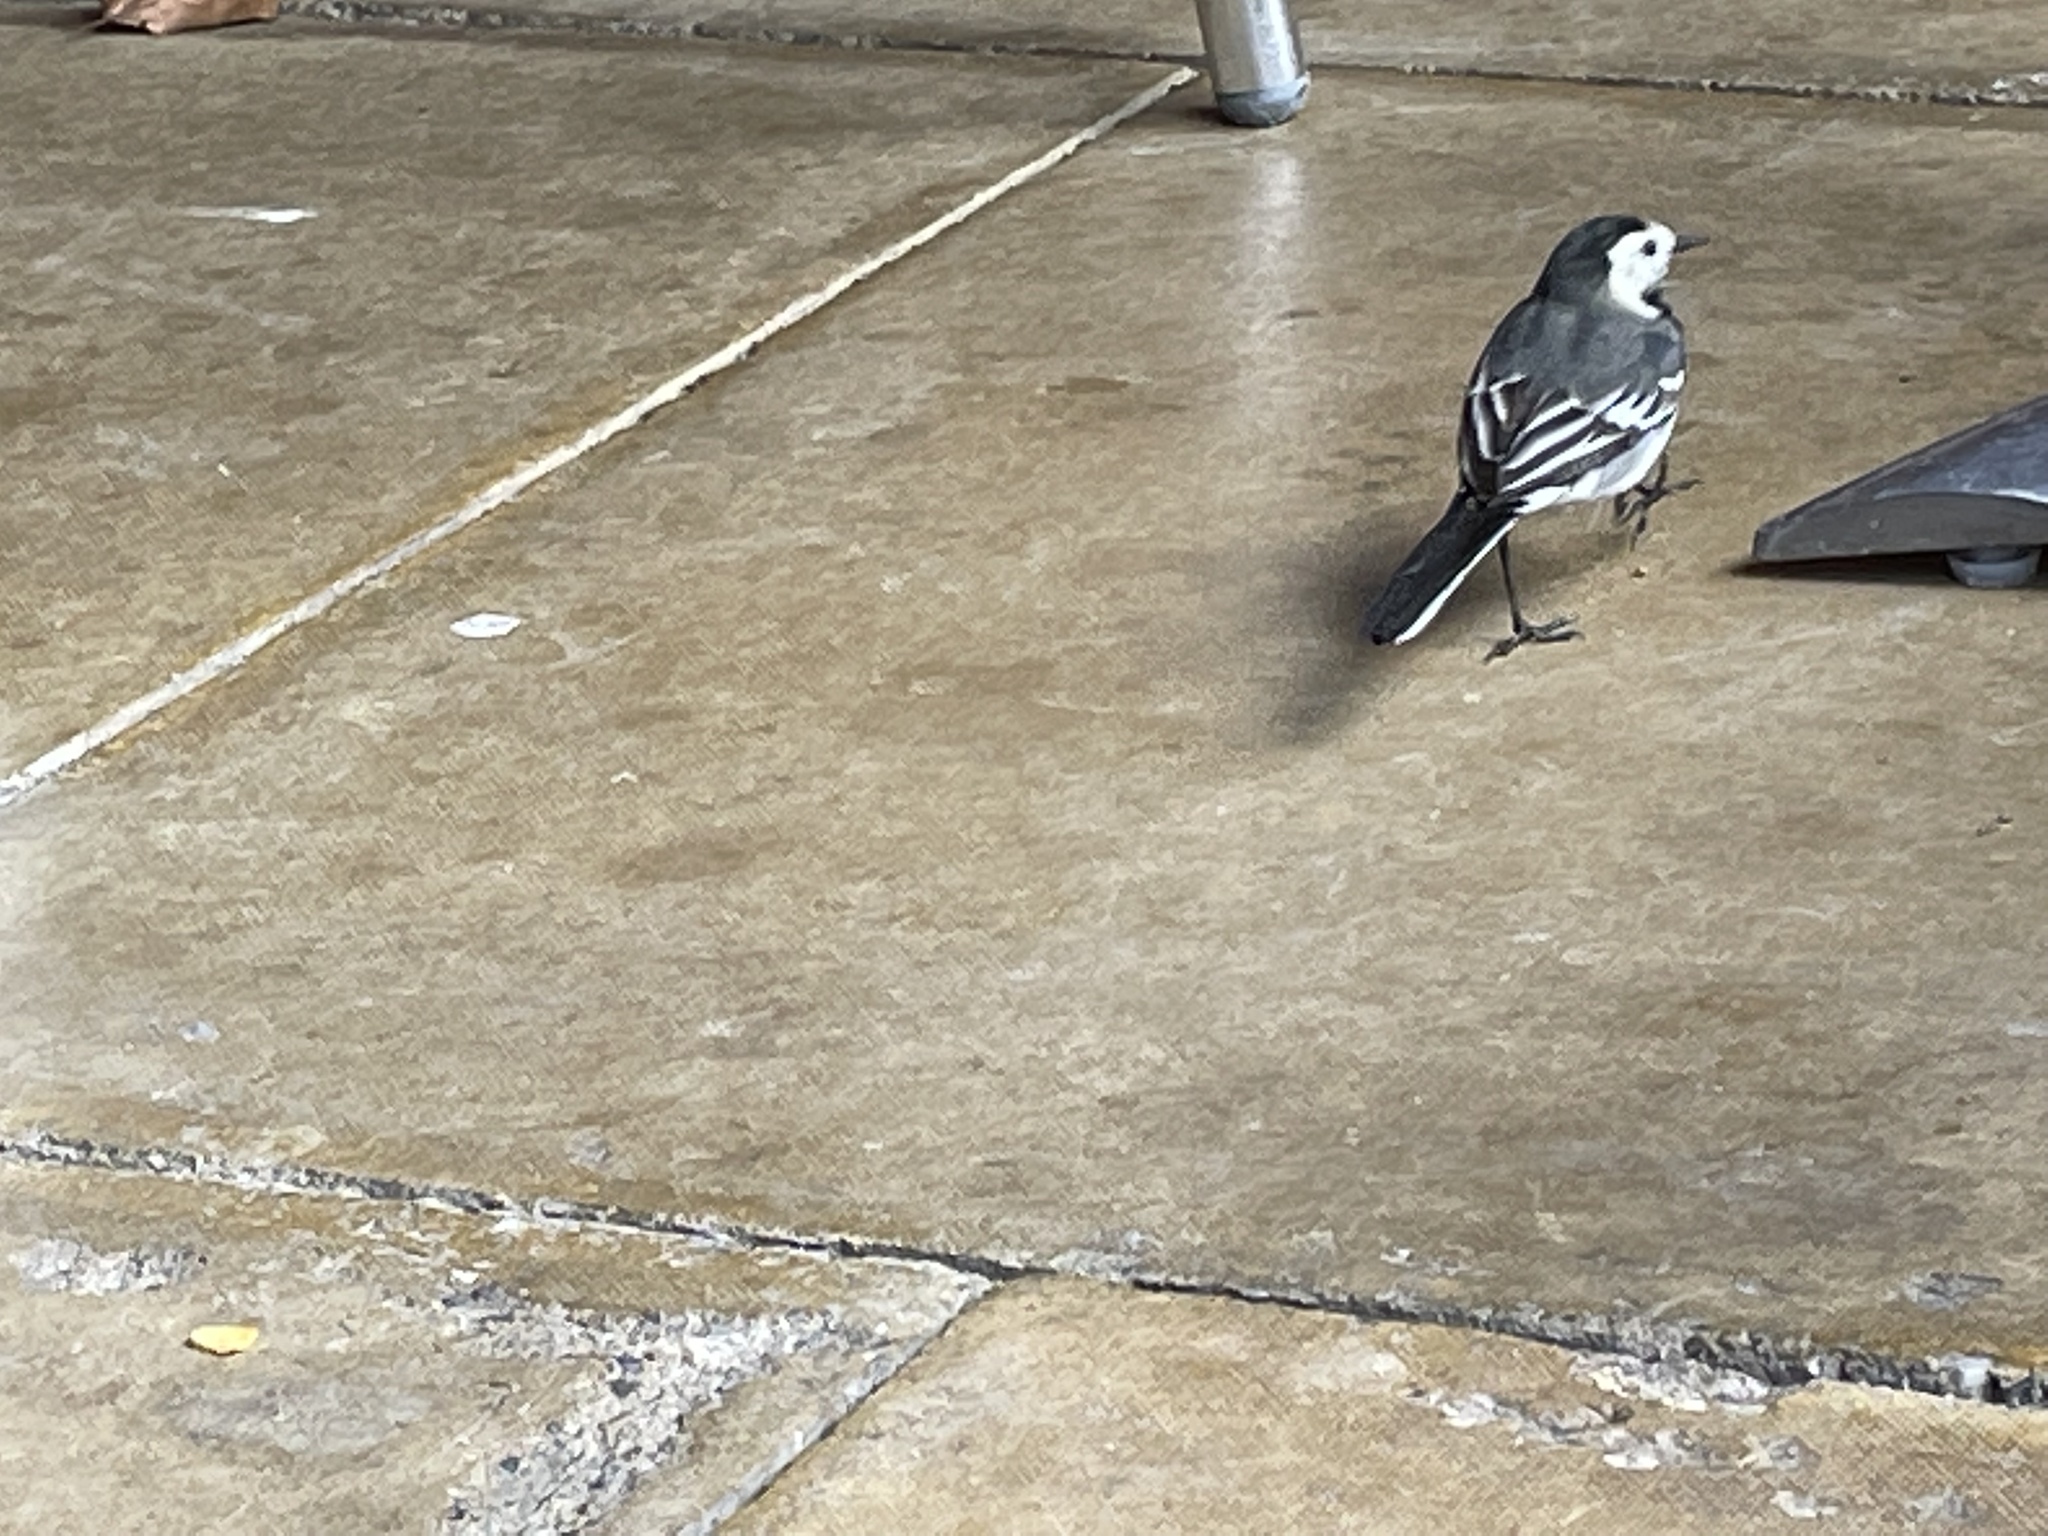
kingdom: Animalia
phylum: Chordata
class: Aves
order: Passeriformes
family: Motacillidae
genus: Motacilla
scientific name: Motacilla alba
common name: White wagtail
